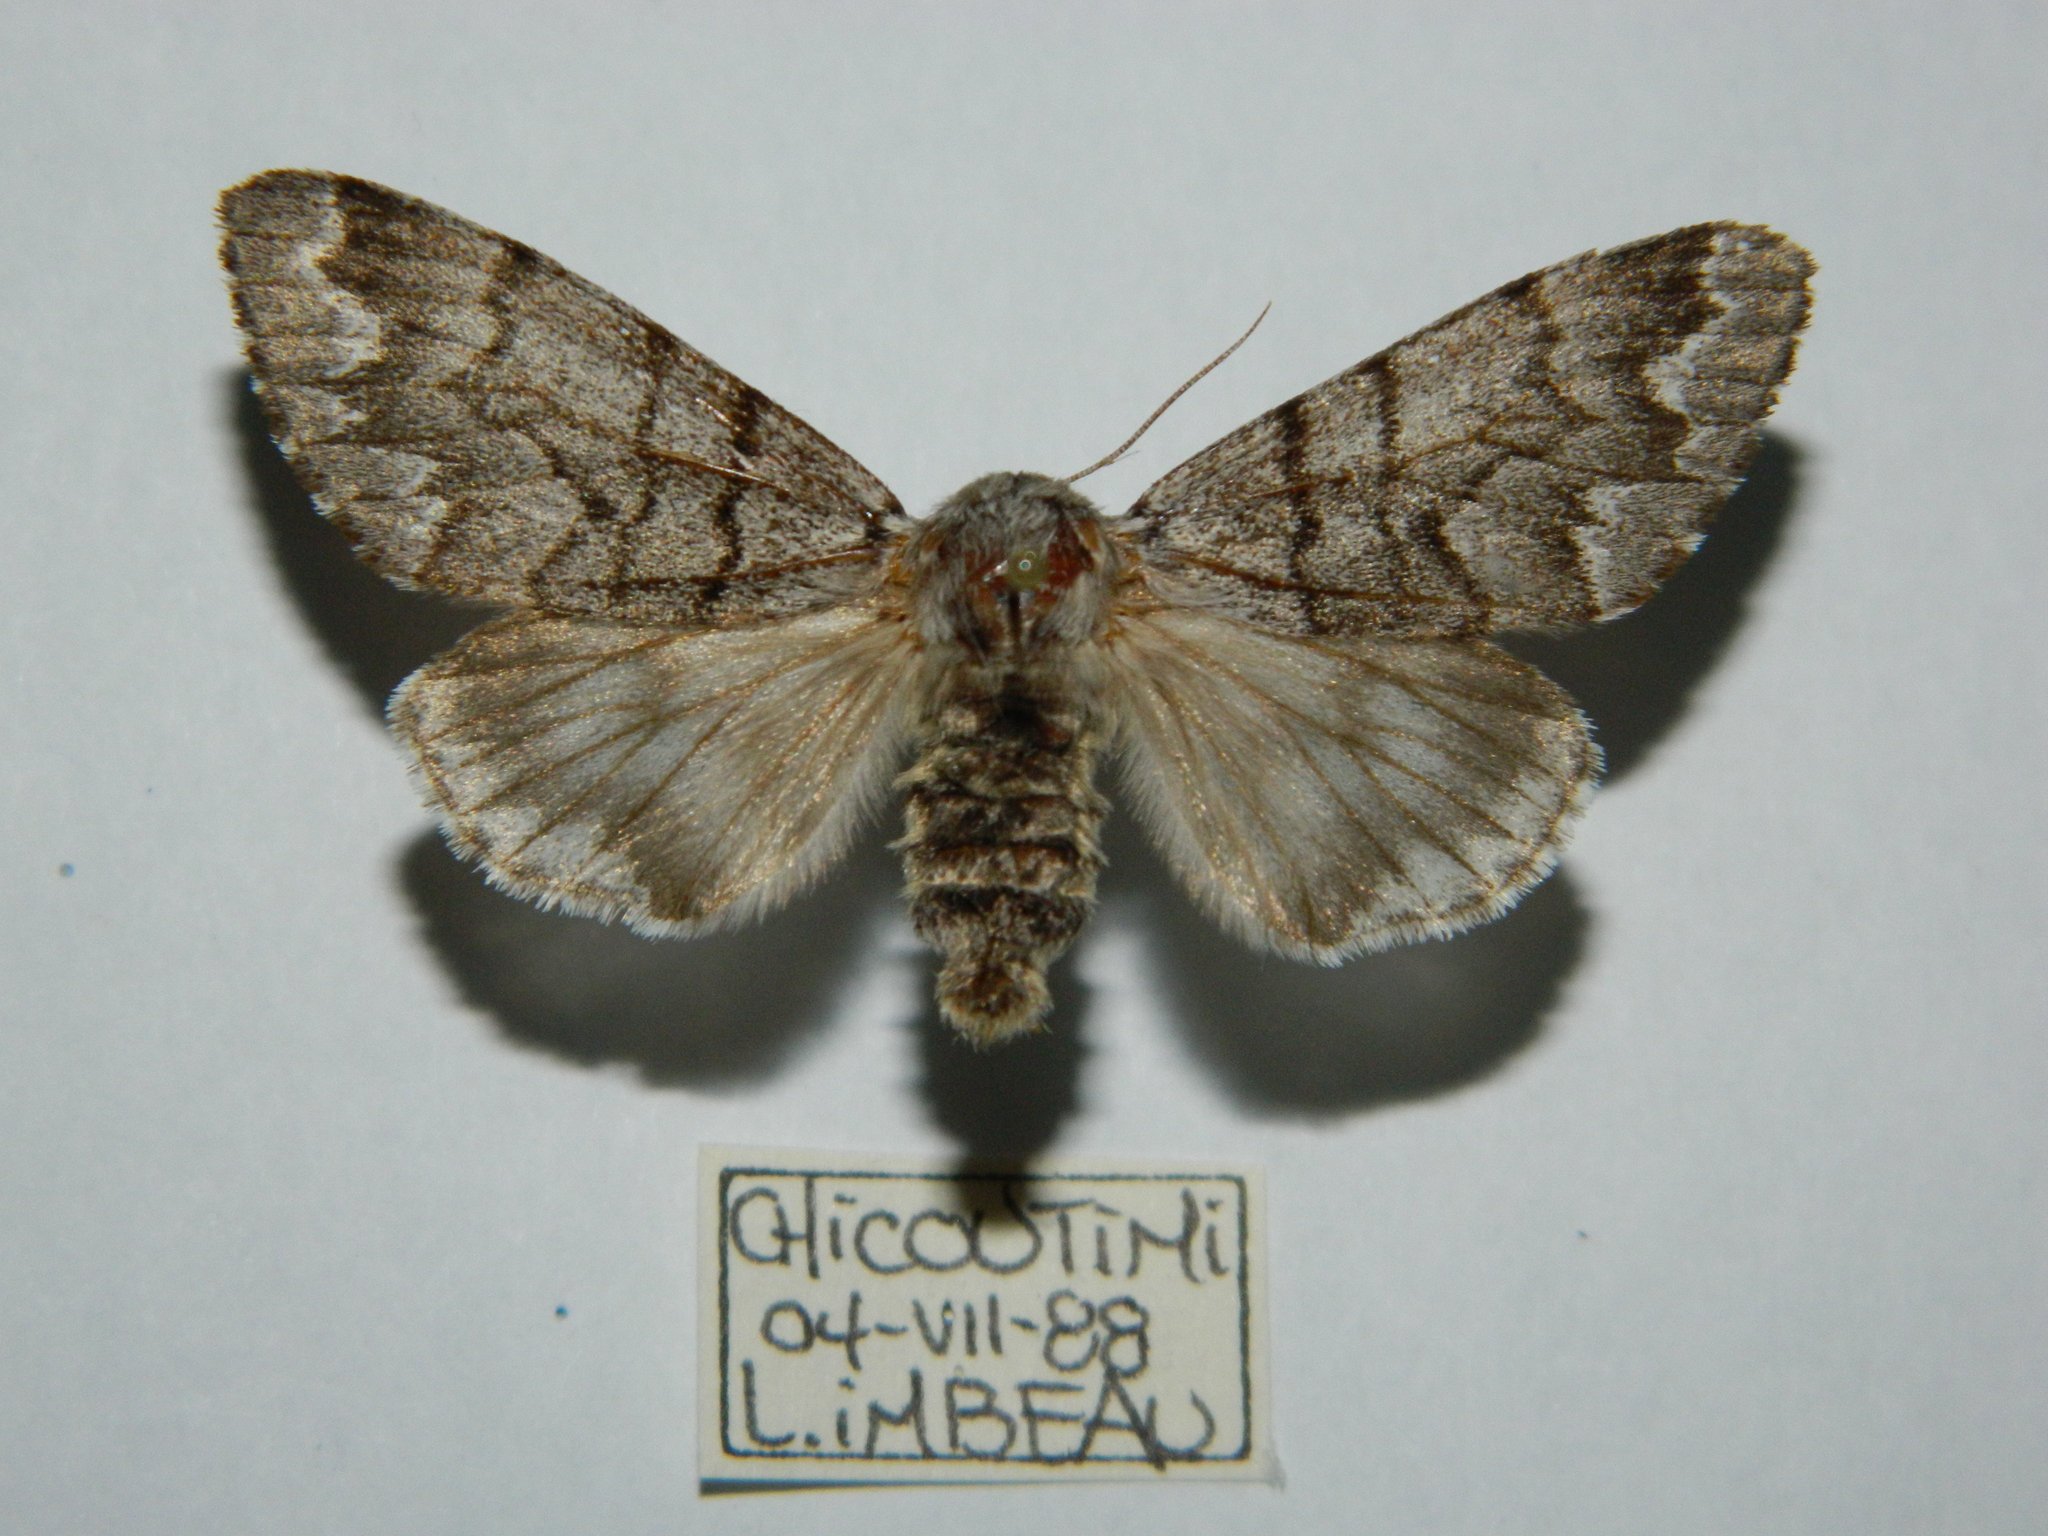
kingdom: Animalia
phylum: Arthropoda
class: Insecta
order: Lepidoptera
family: Noctuidae
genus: Panthea
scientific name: Panthea furcilla
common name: Eastern panthea moth
